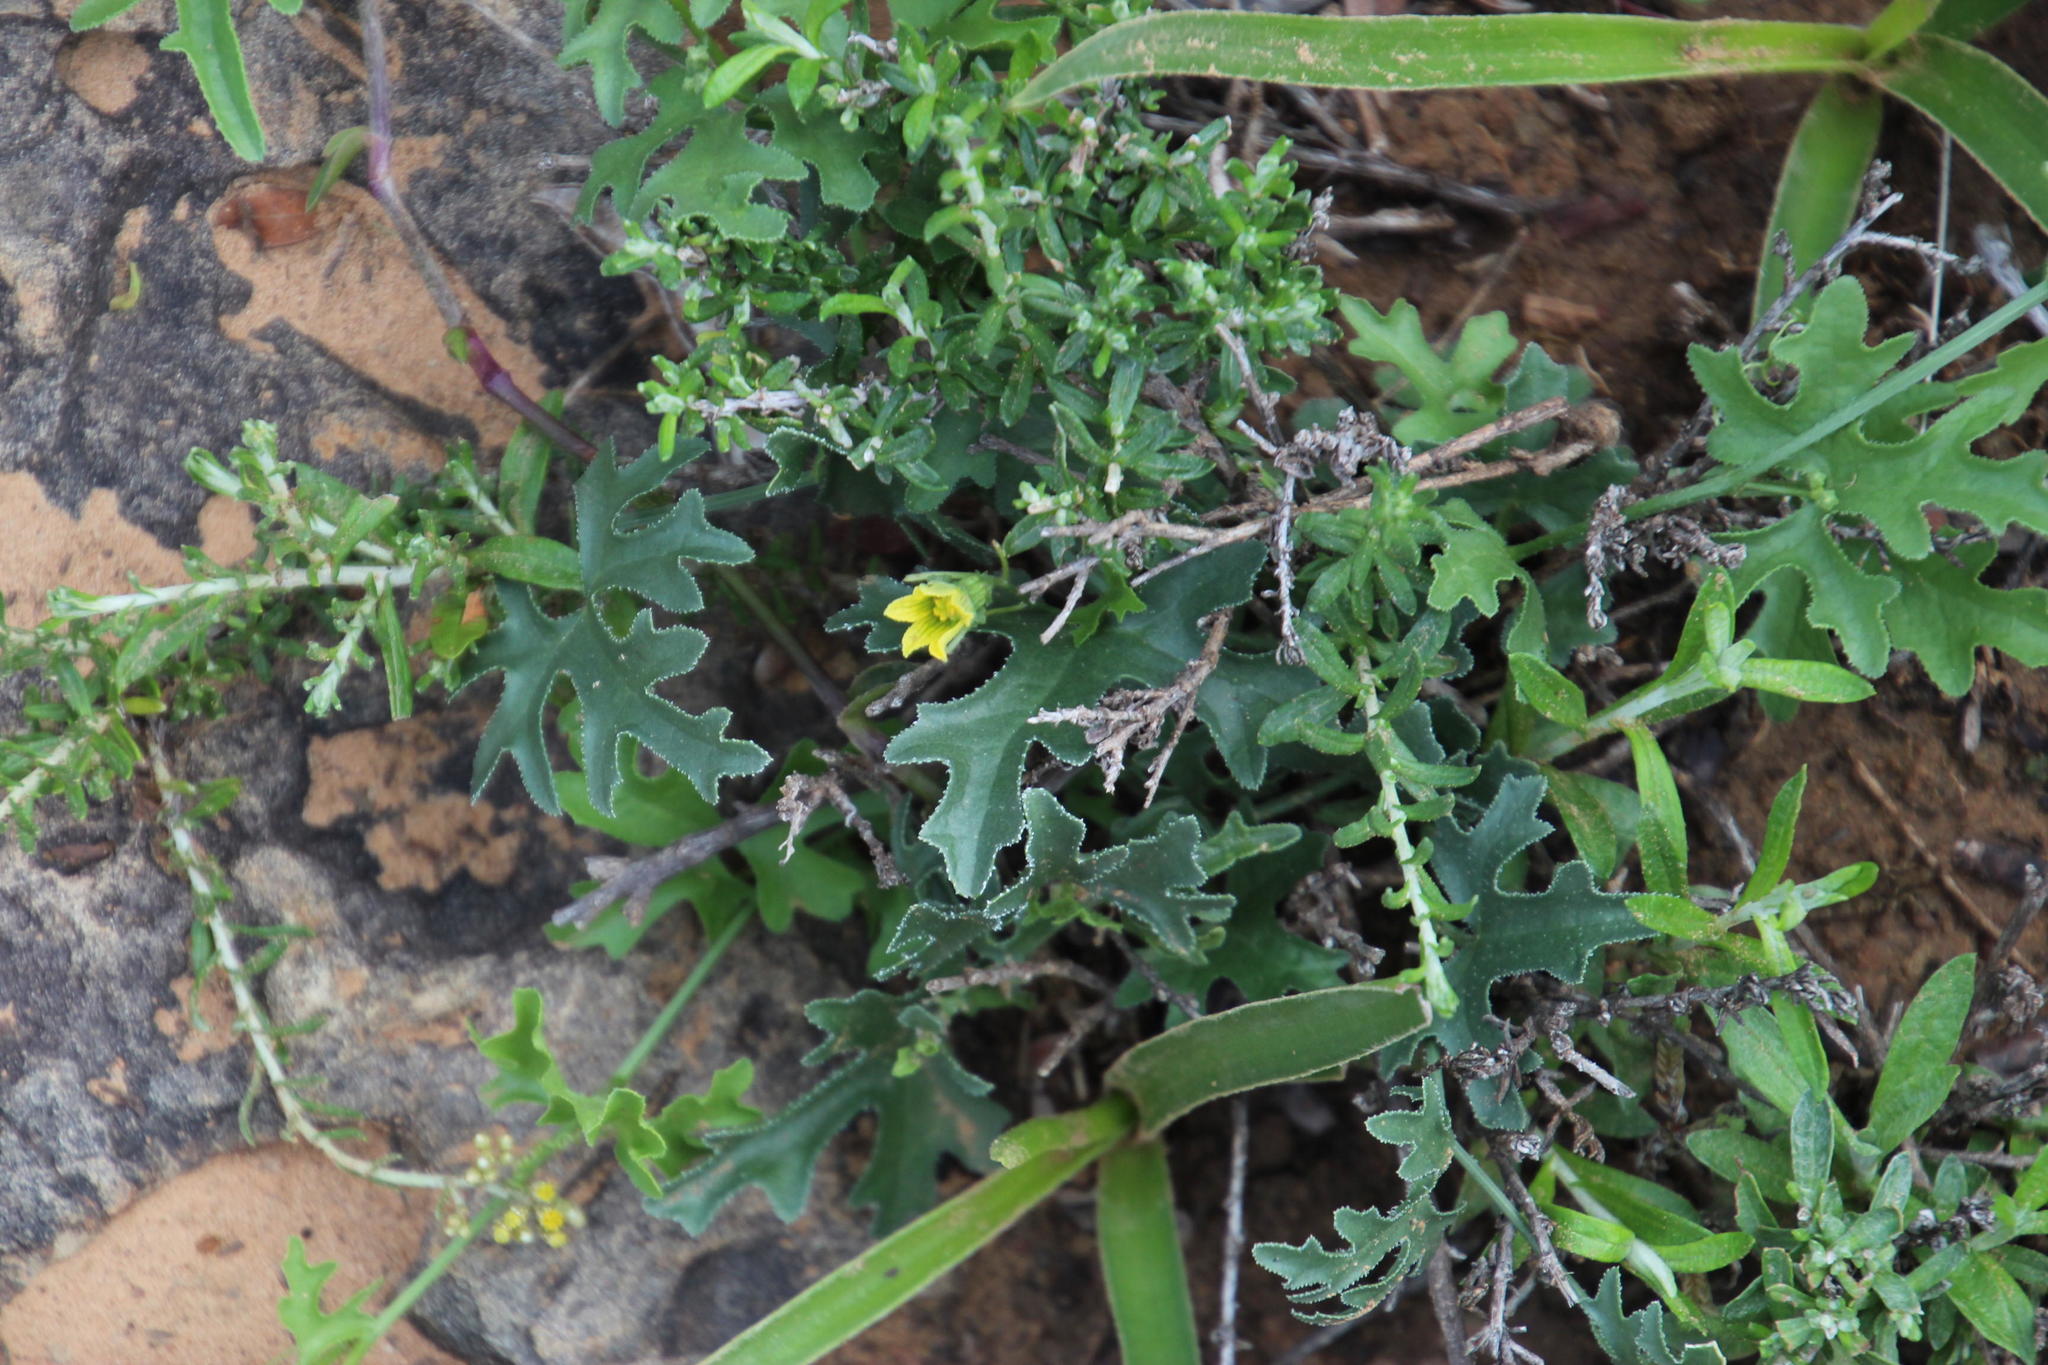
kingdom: Plantae
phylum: Tracheophyta
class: Magnoliopsida
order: Cucurbitales
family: Cucurbitaceae
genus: Cucumis
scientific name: Cucumis zeyheri
